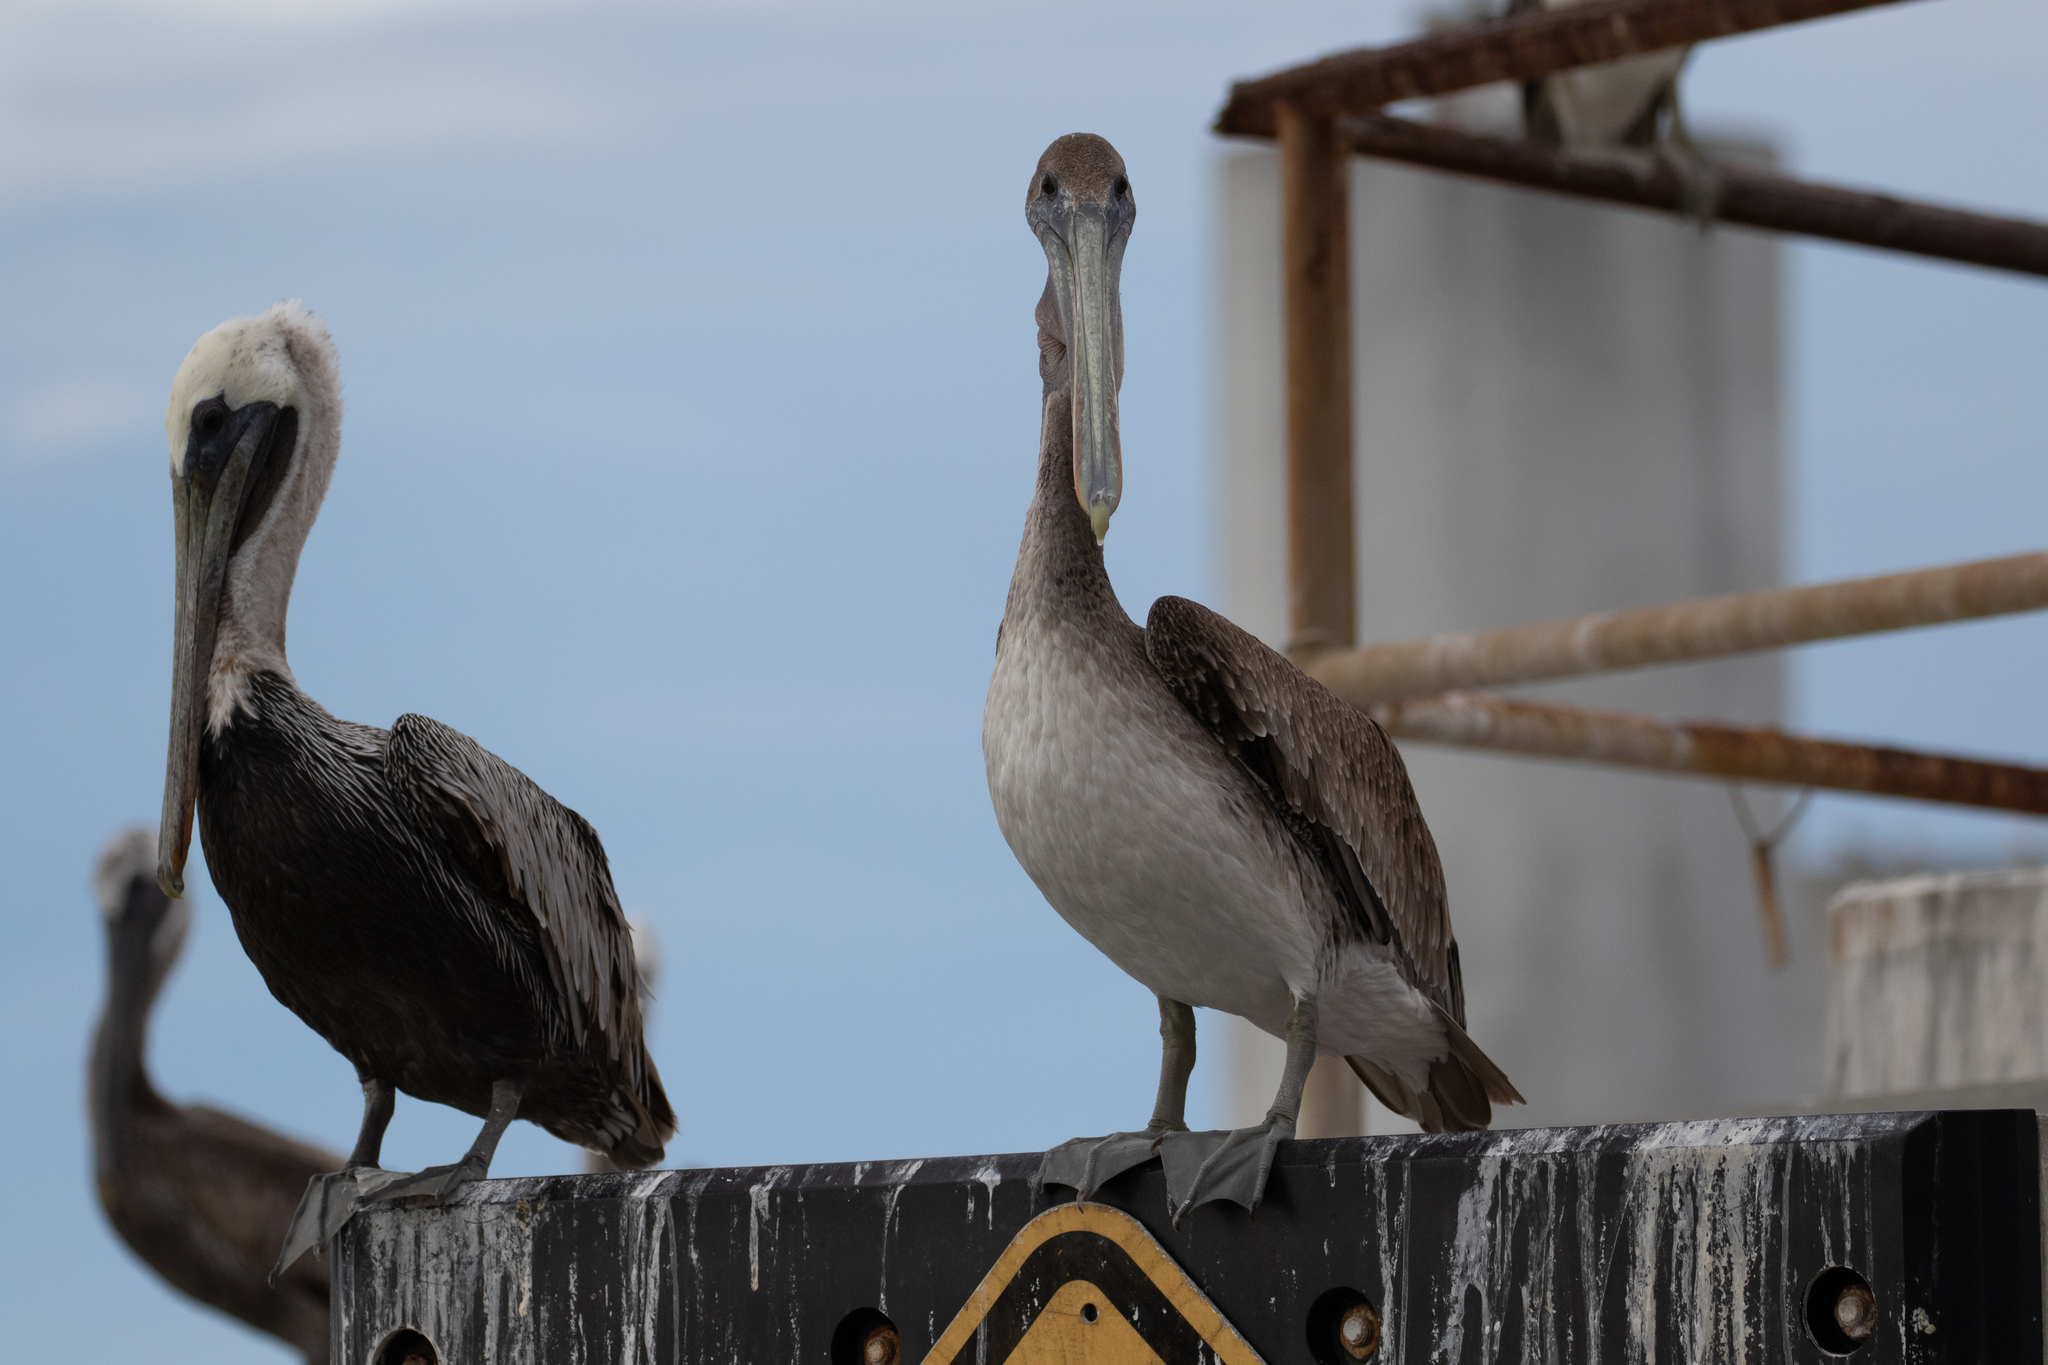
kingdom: Animalia
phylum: Chordata
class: Aves
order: Pelecaniformes
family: Pelecanidae
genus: Pelecanus
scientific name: Pelecanus occidentalis
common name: Brown pelican
